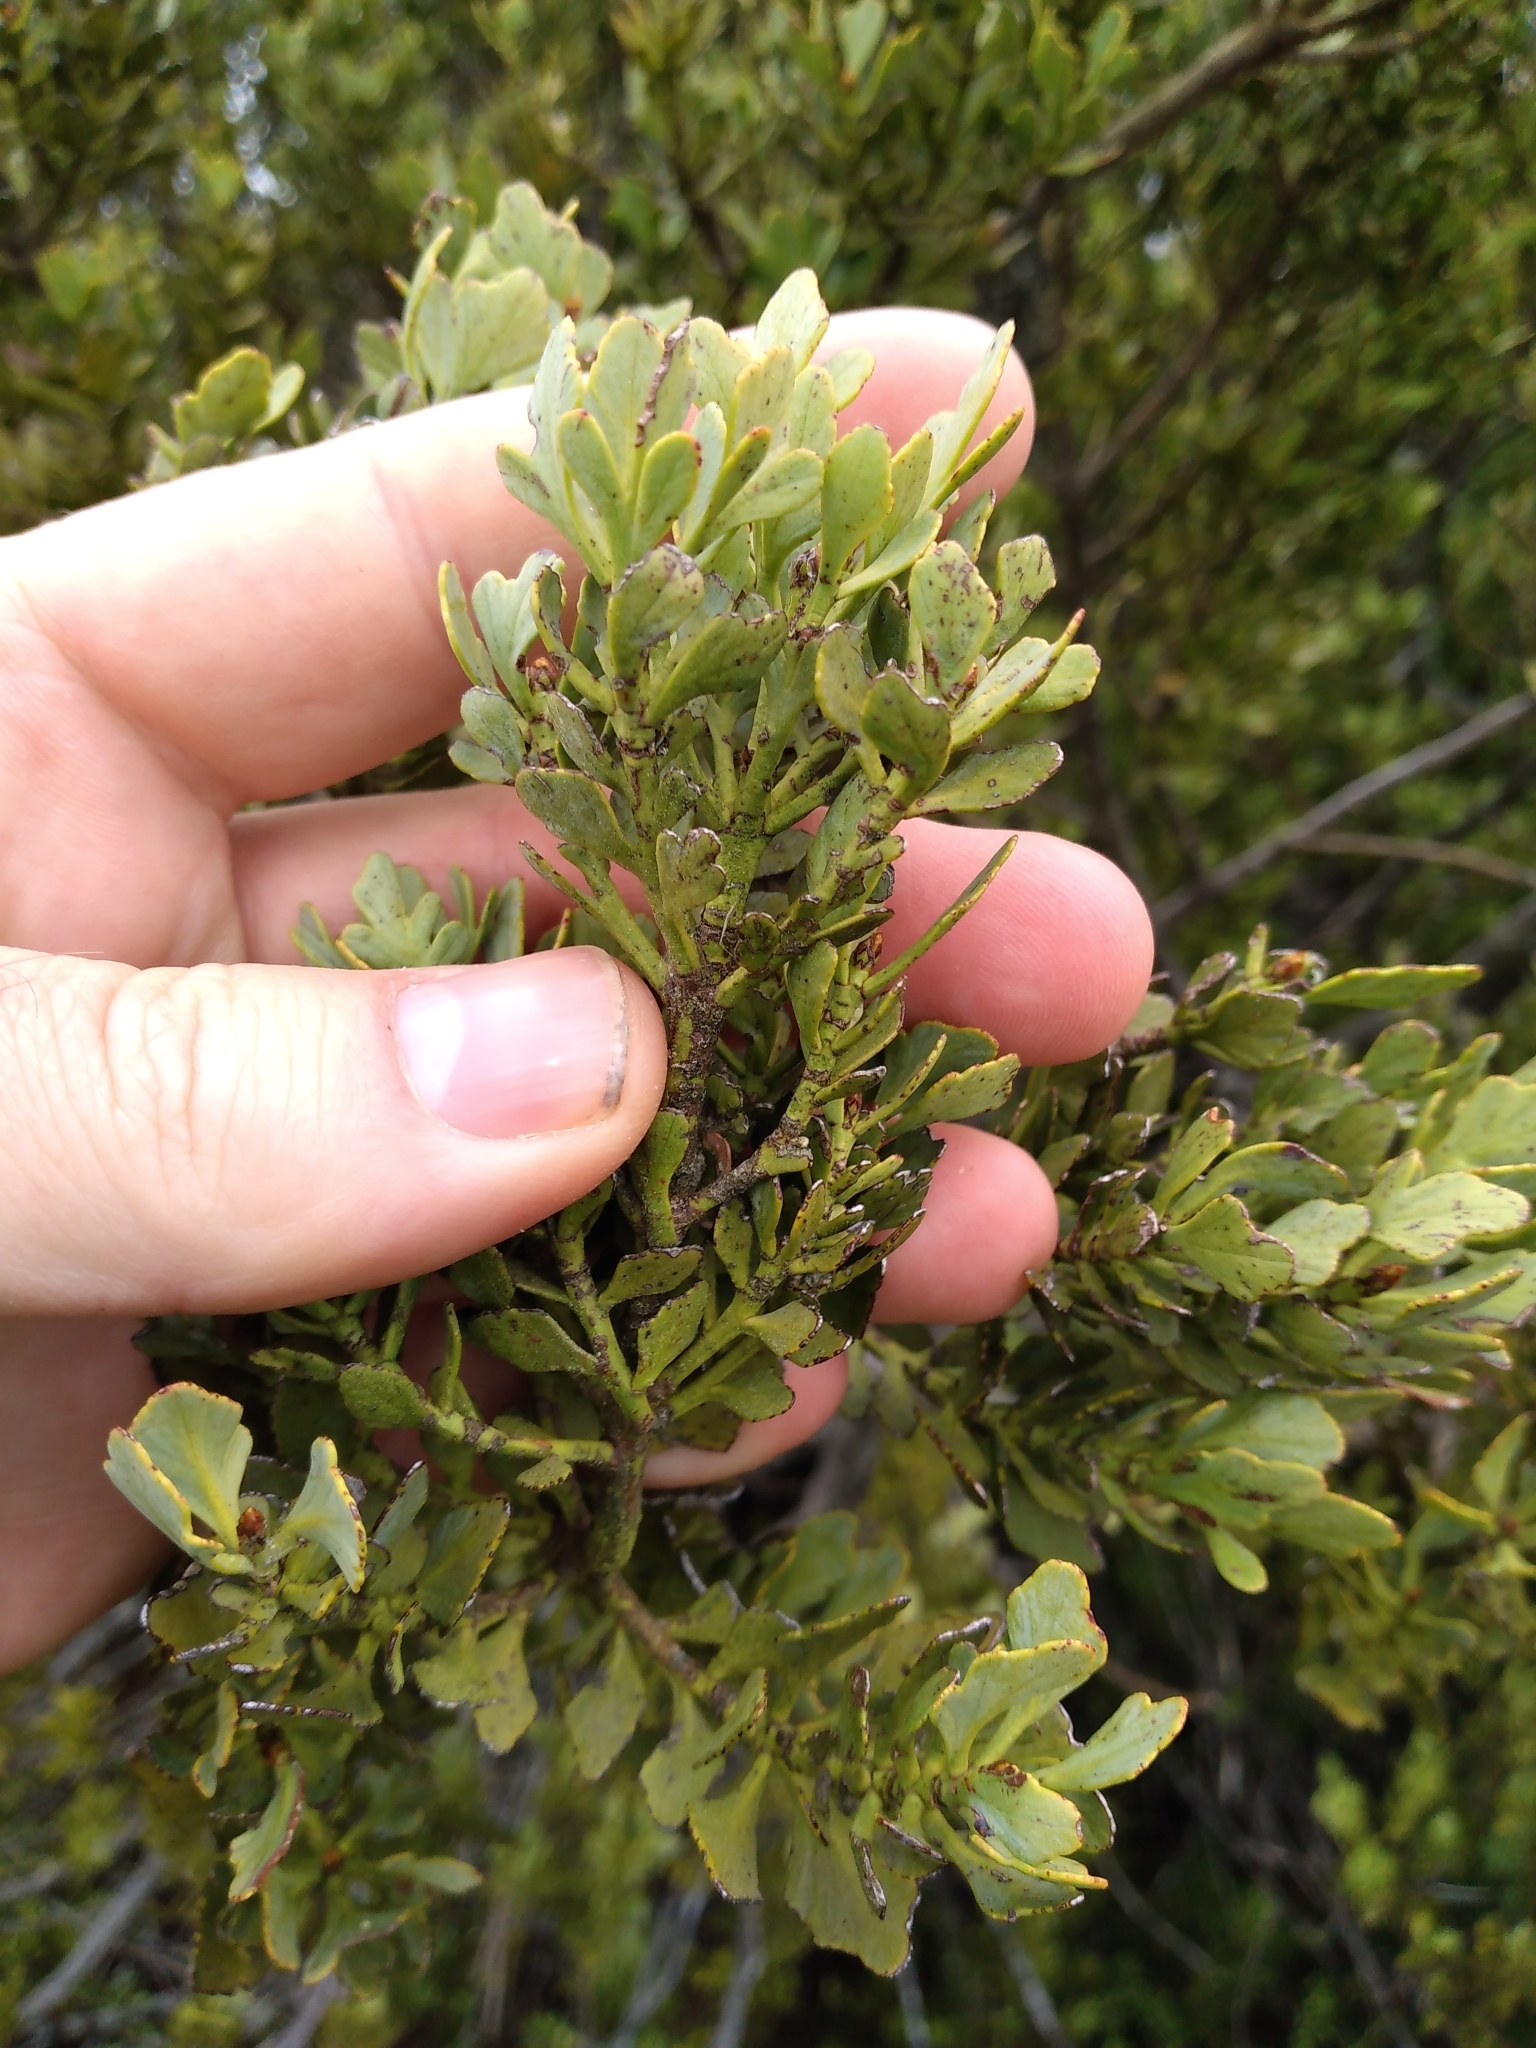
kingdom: Plantae
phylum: Tracheophyta
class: Pinopsida
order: Pinales
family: Phyllocladaceae
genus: Phyllocladus
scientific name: Phyllocladus trichomanoides
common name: Celery pine
